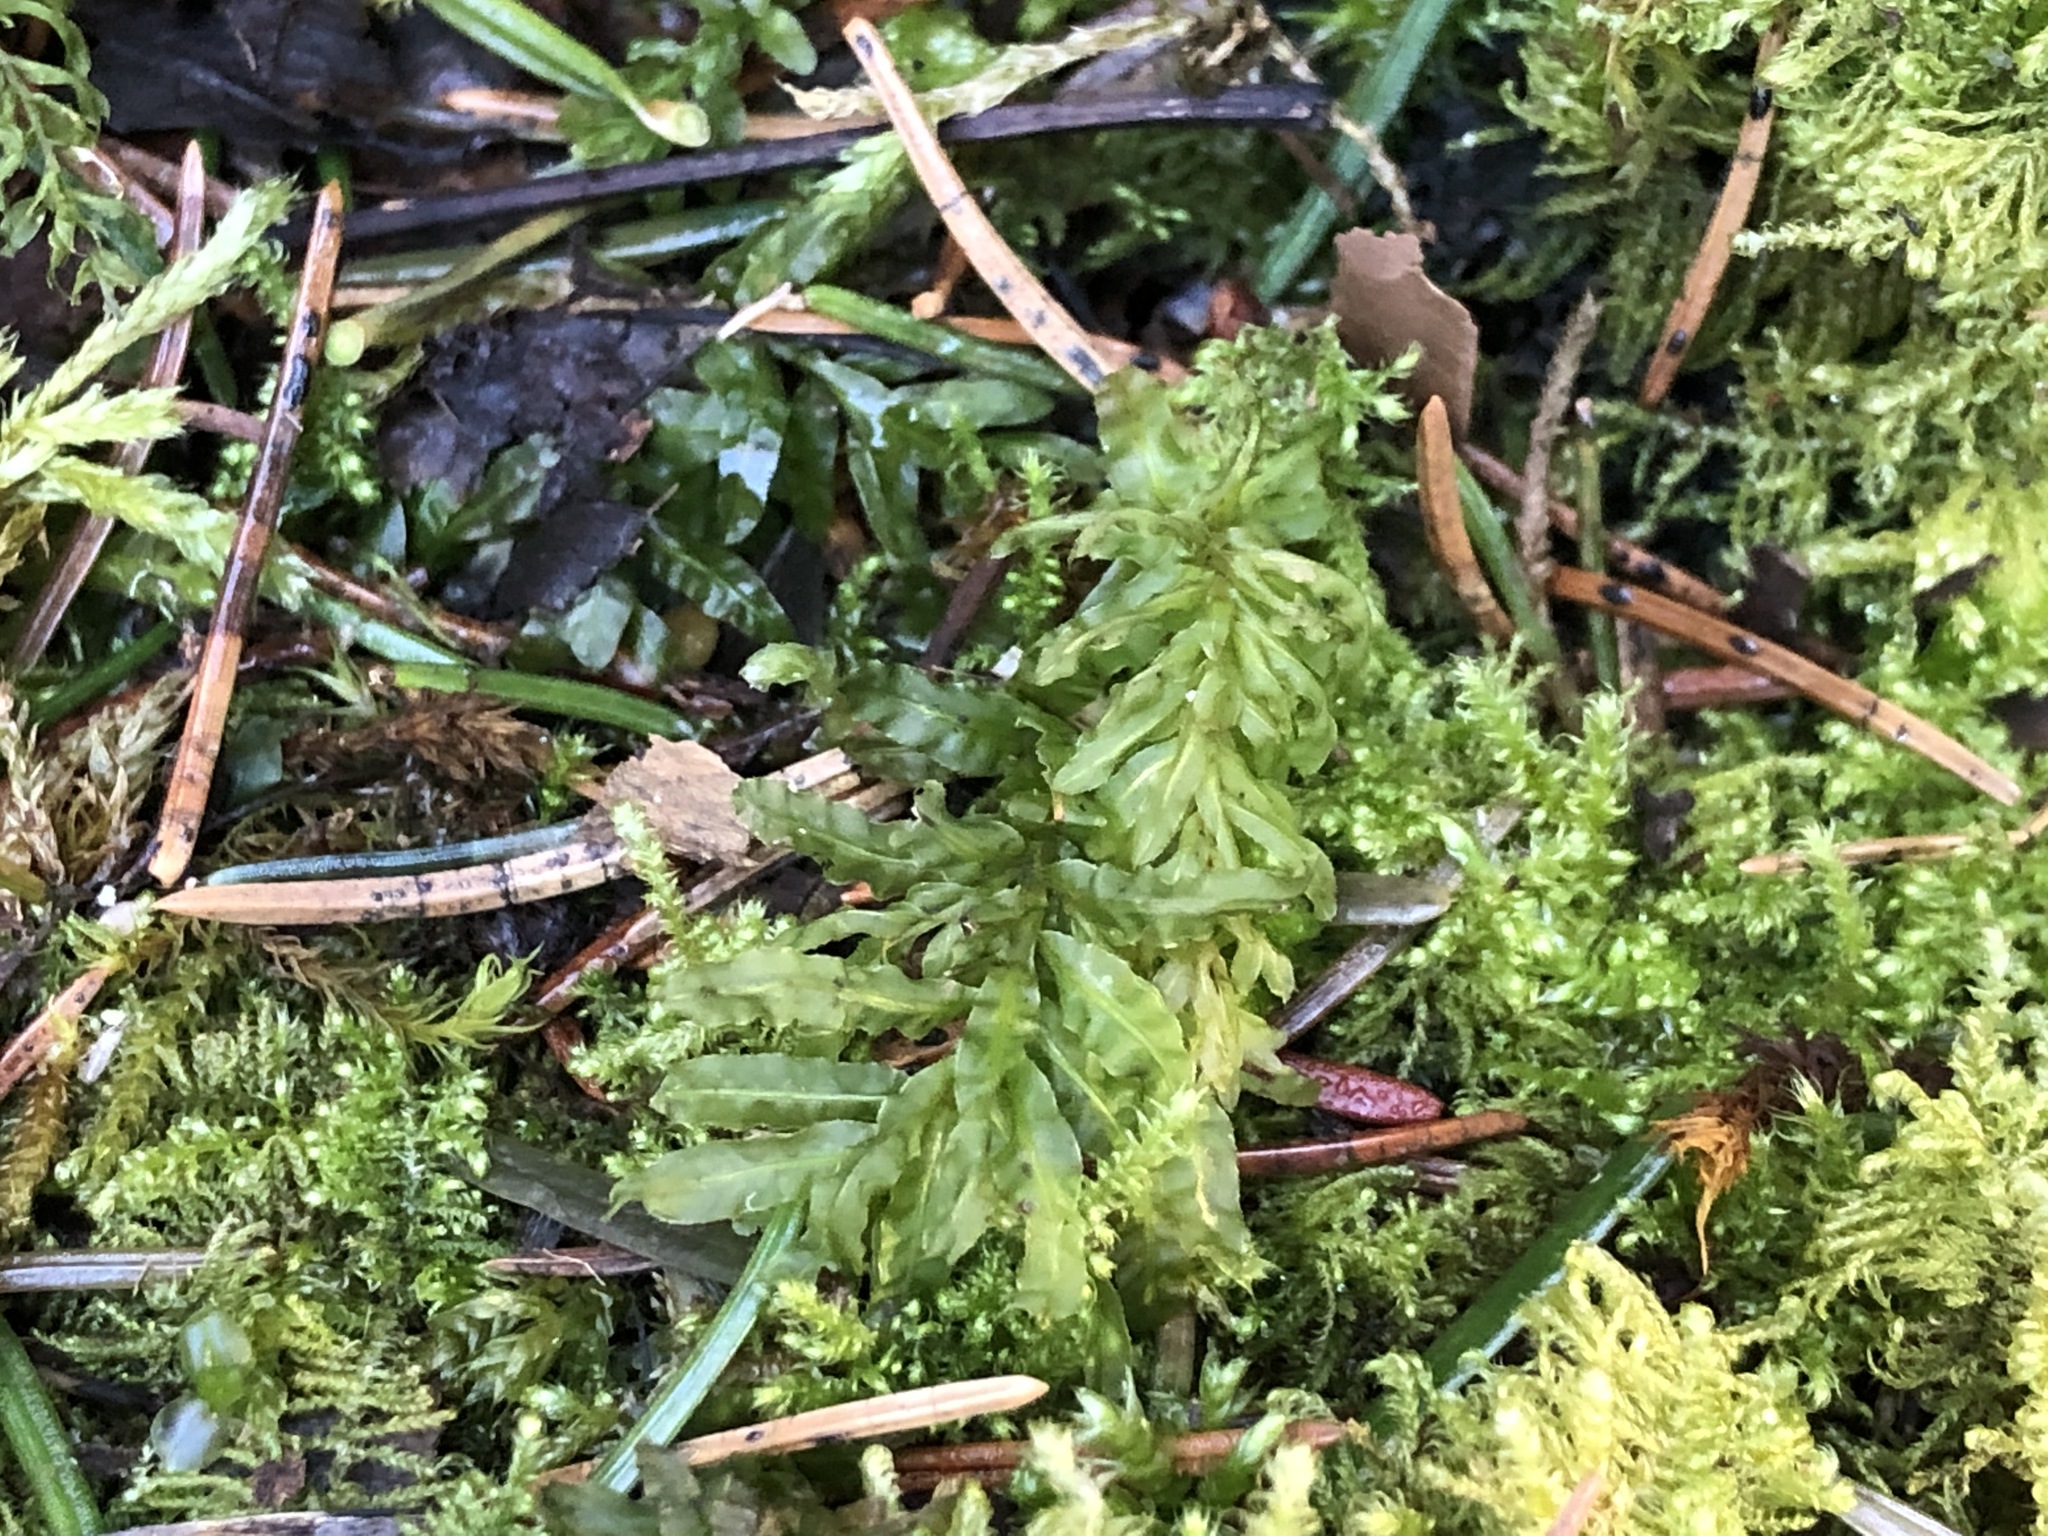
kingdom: Plantae
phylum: Bryophyta
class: Bryopsida
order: Bryales
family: Mniaceae
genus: Plagiomnium
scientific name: Plagiomnium undulatum
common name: Hart's-tongue thyme-moss
